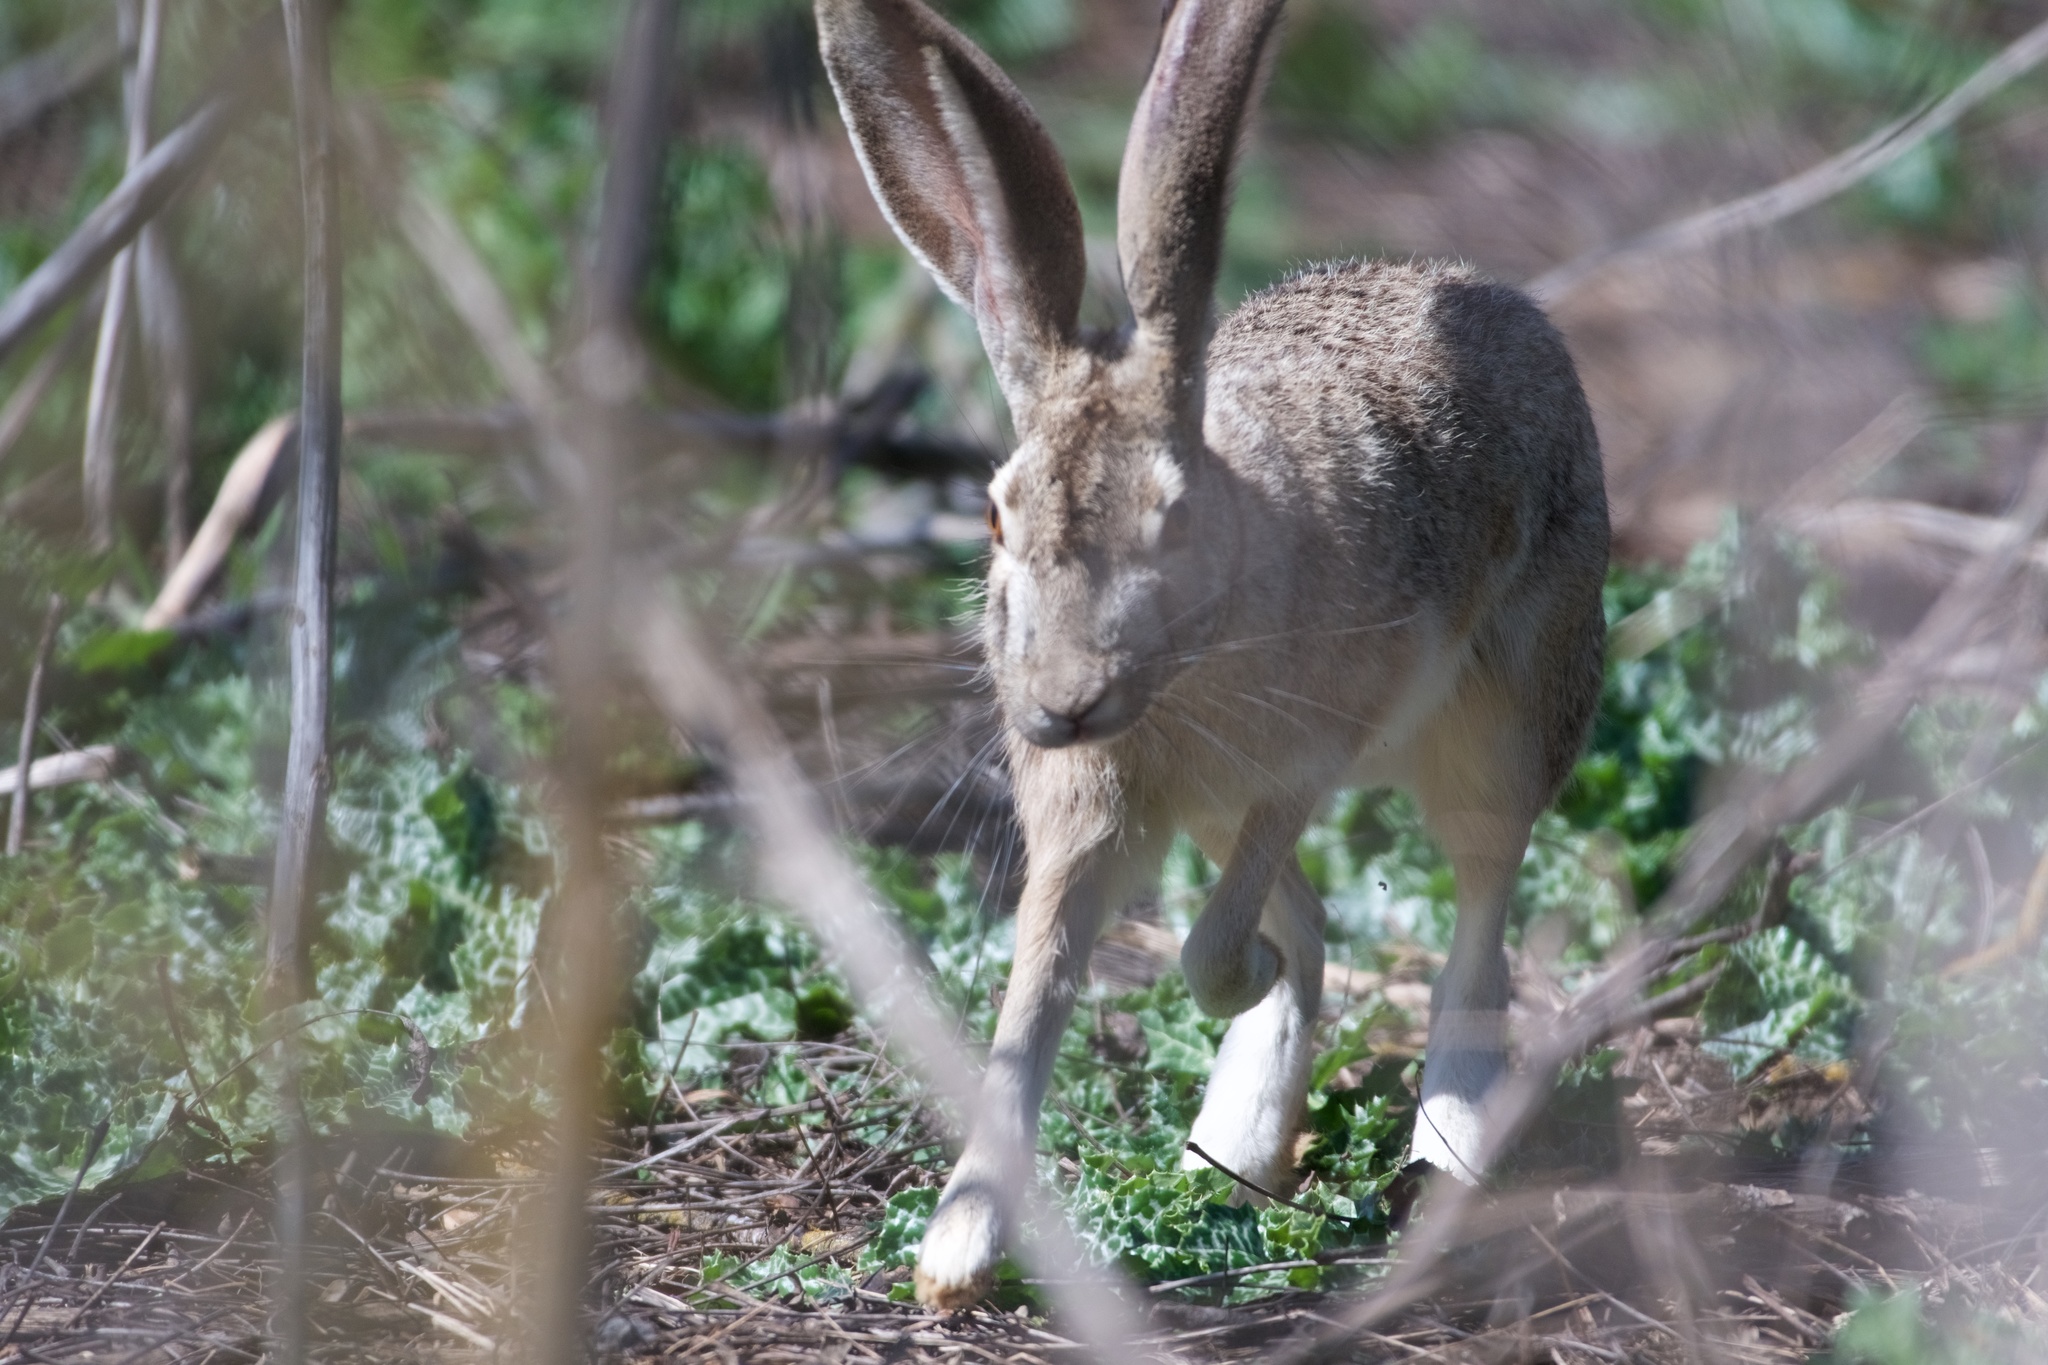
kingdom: Animalia
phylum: Chordata
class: Mammalia
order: Lagomorpha
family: Leporidae
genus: Lepus
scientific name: Lepus californicus
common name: Black-tailed jackrabbit
